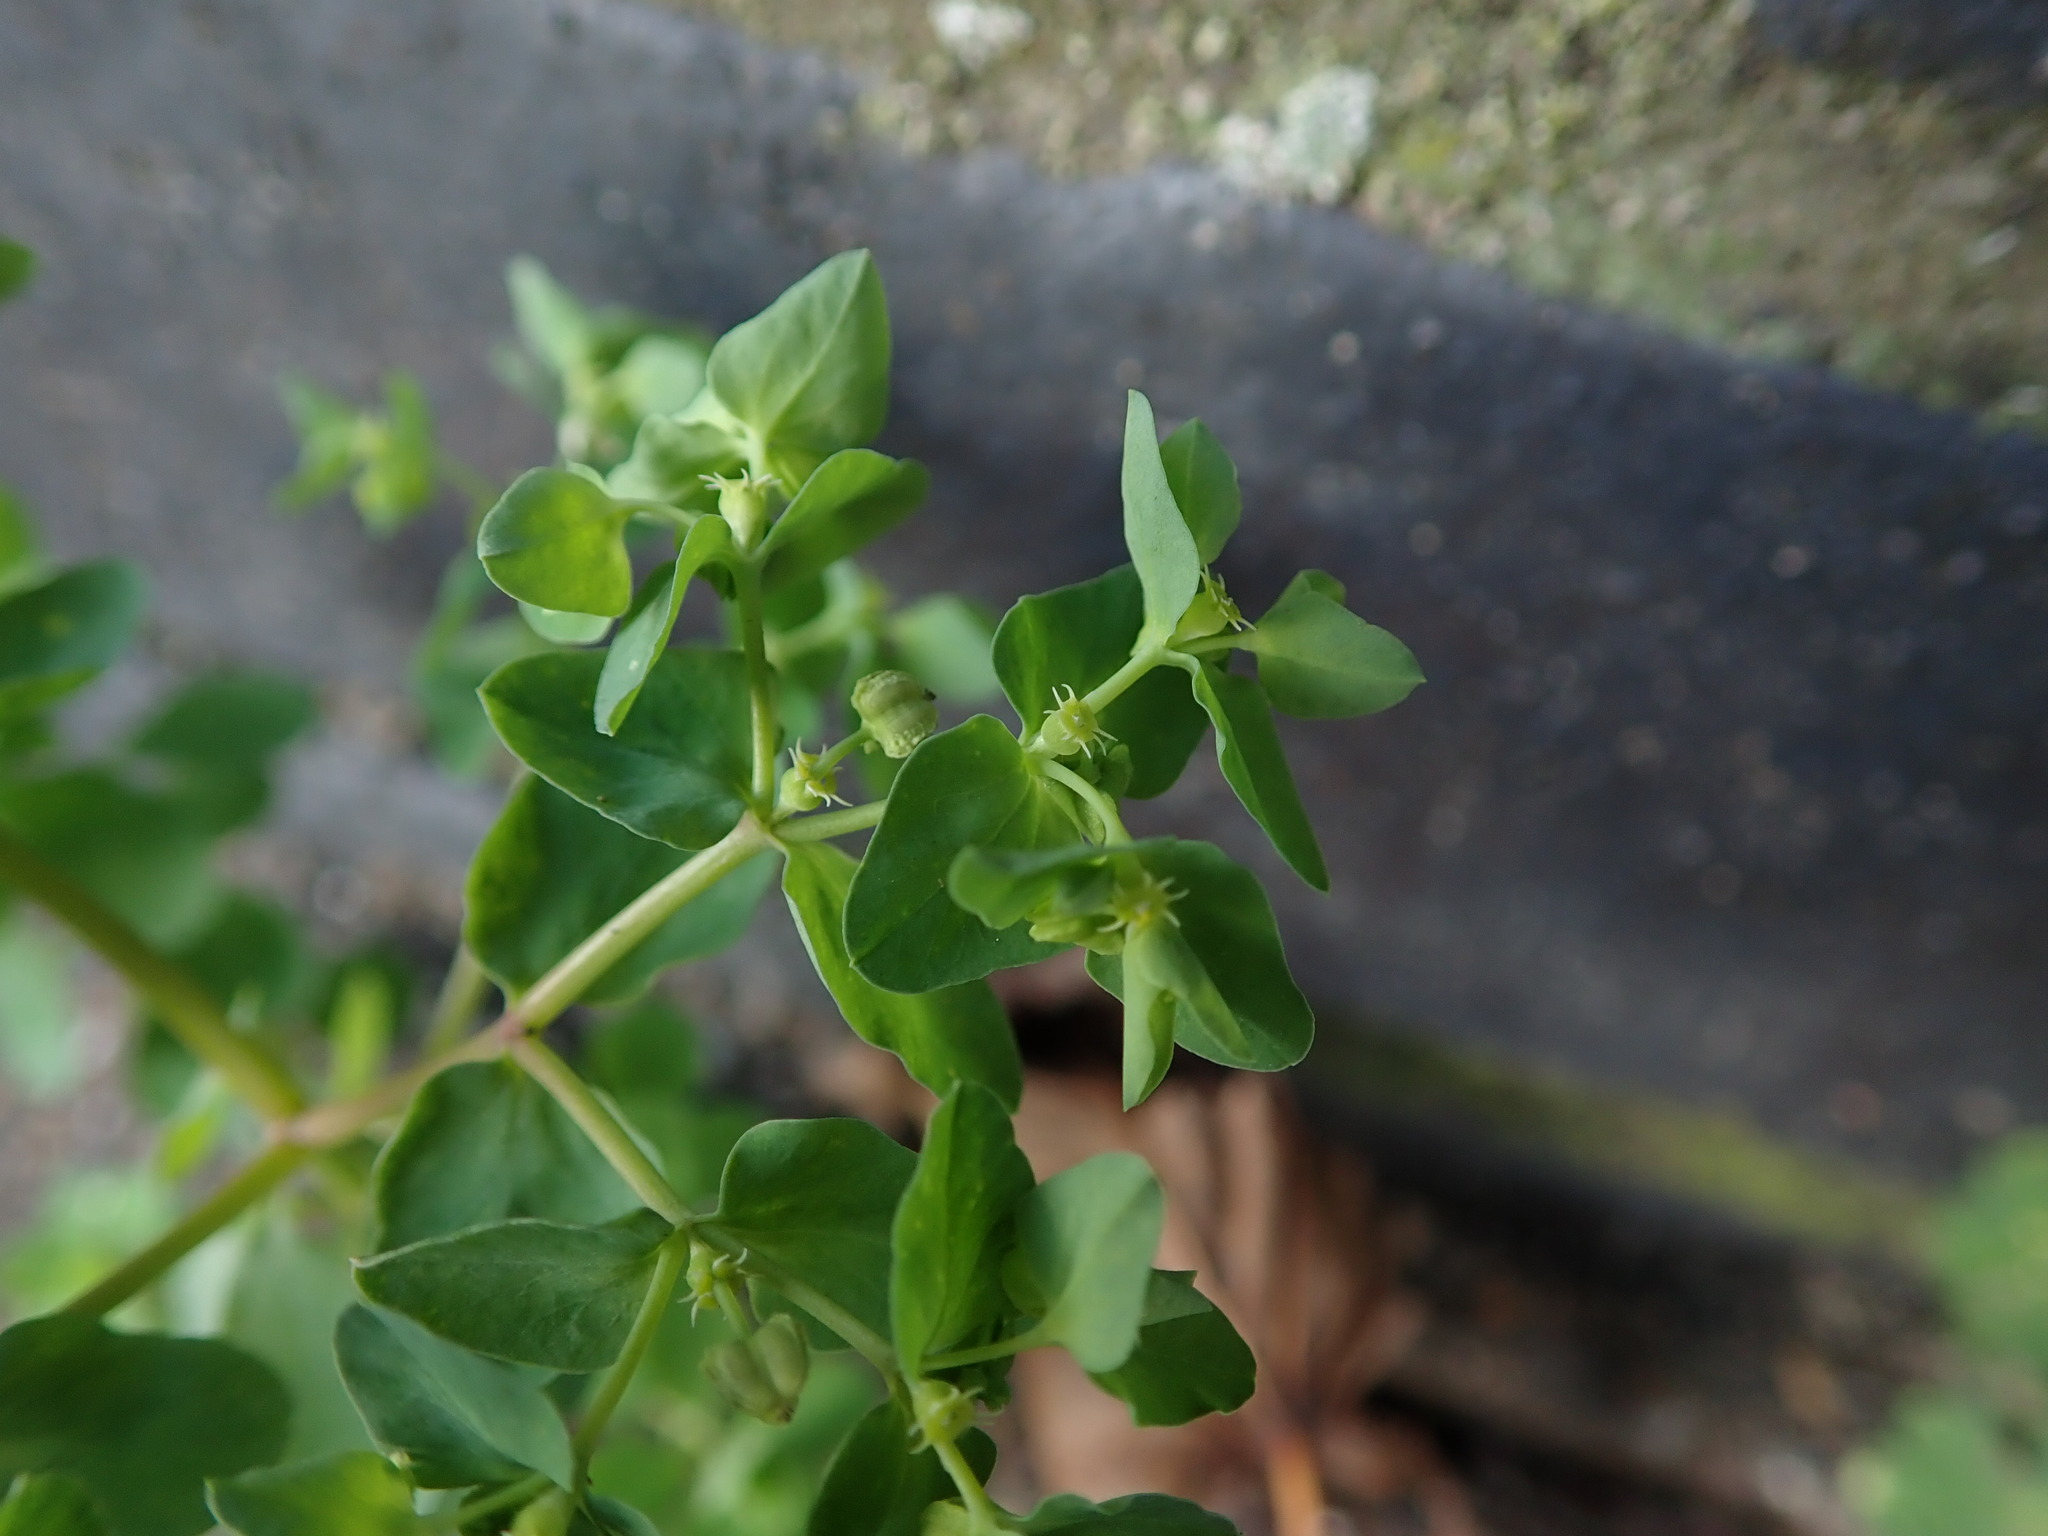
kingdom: Plantae
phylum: Tracheophyta
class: Magnoliopsida
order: Malpighiales
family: Euphorbiaceae
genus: Euphorbia
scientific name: Euphorbia peplus
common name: Petty spurge
